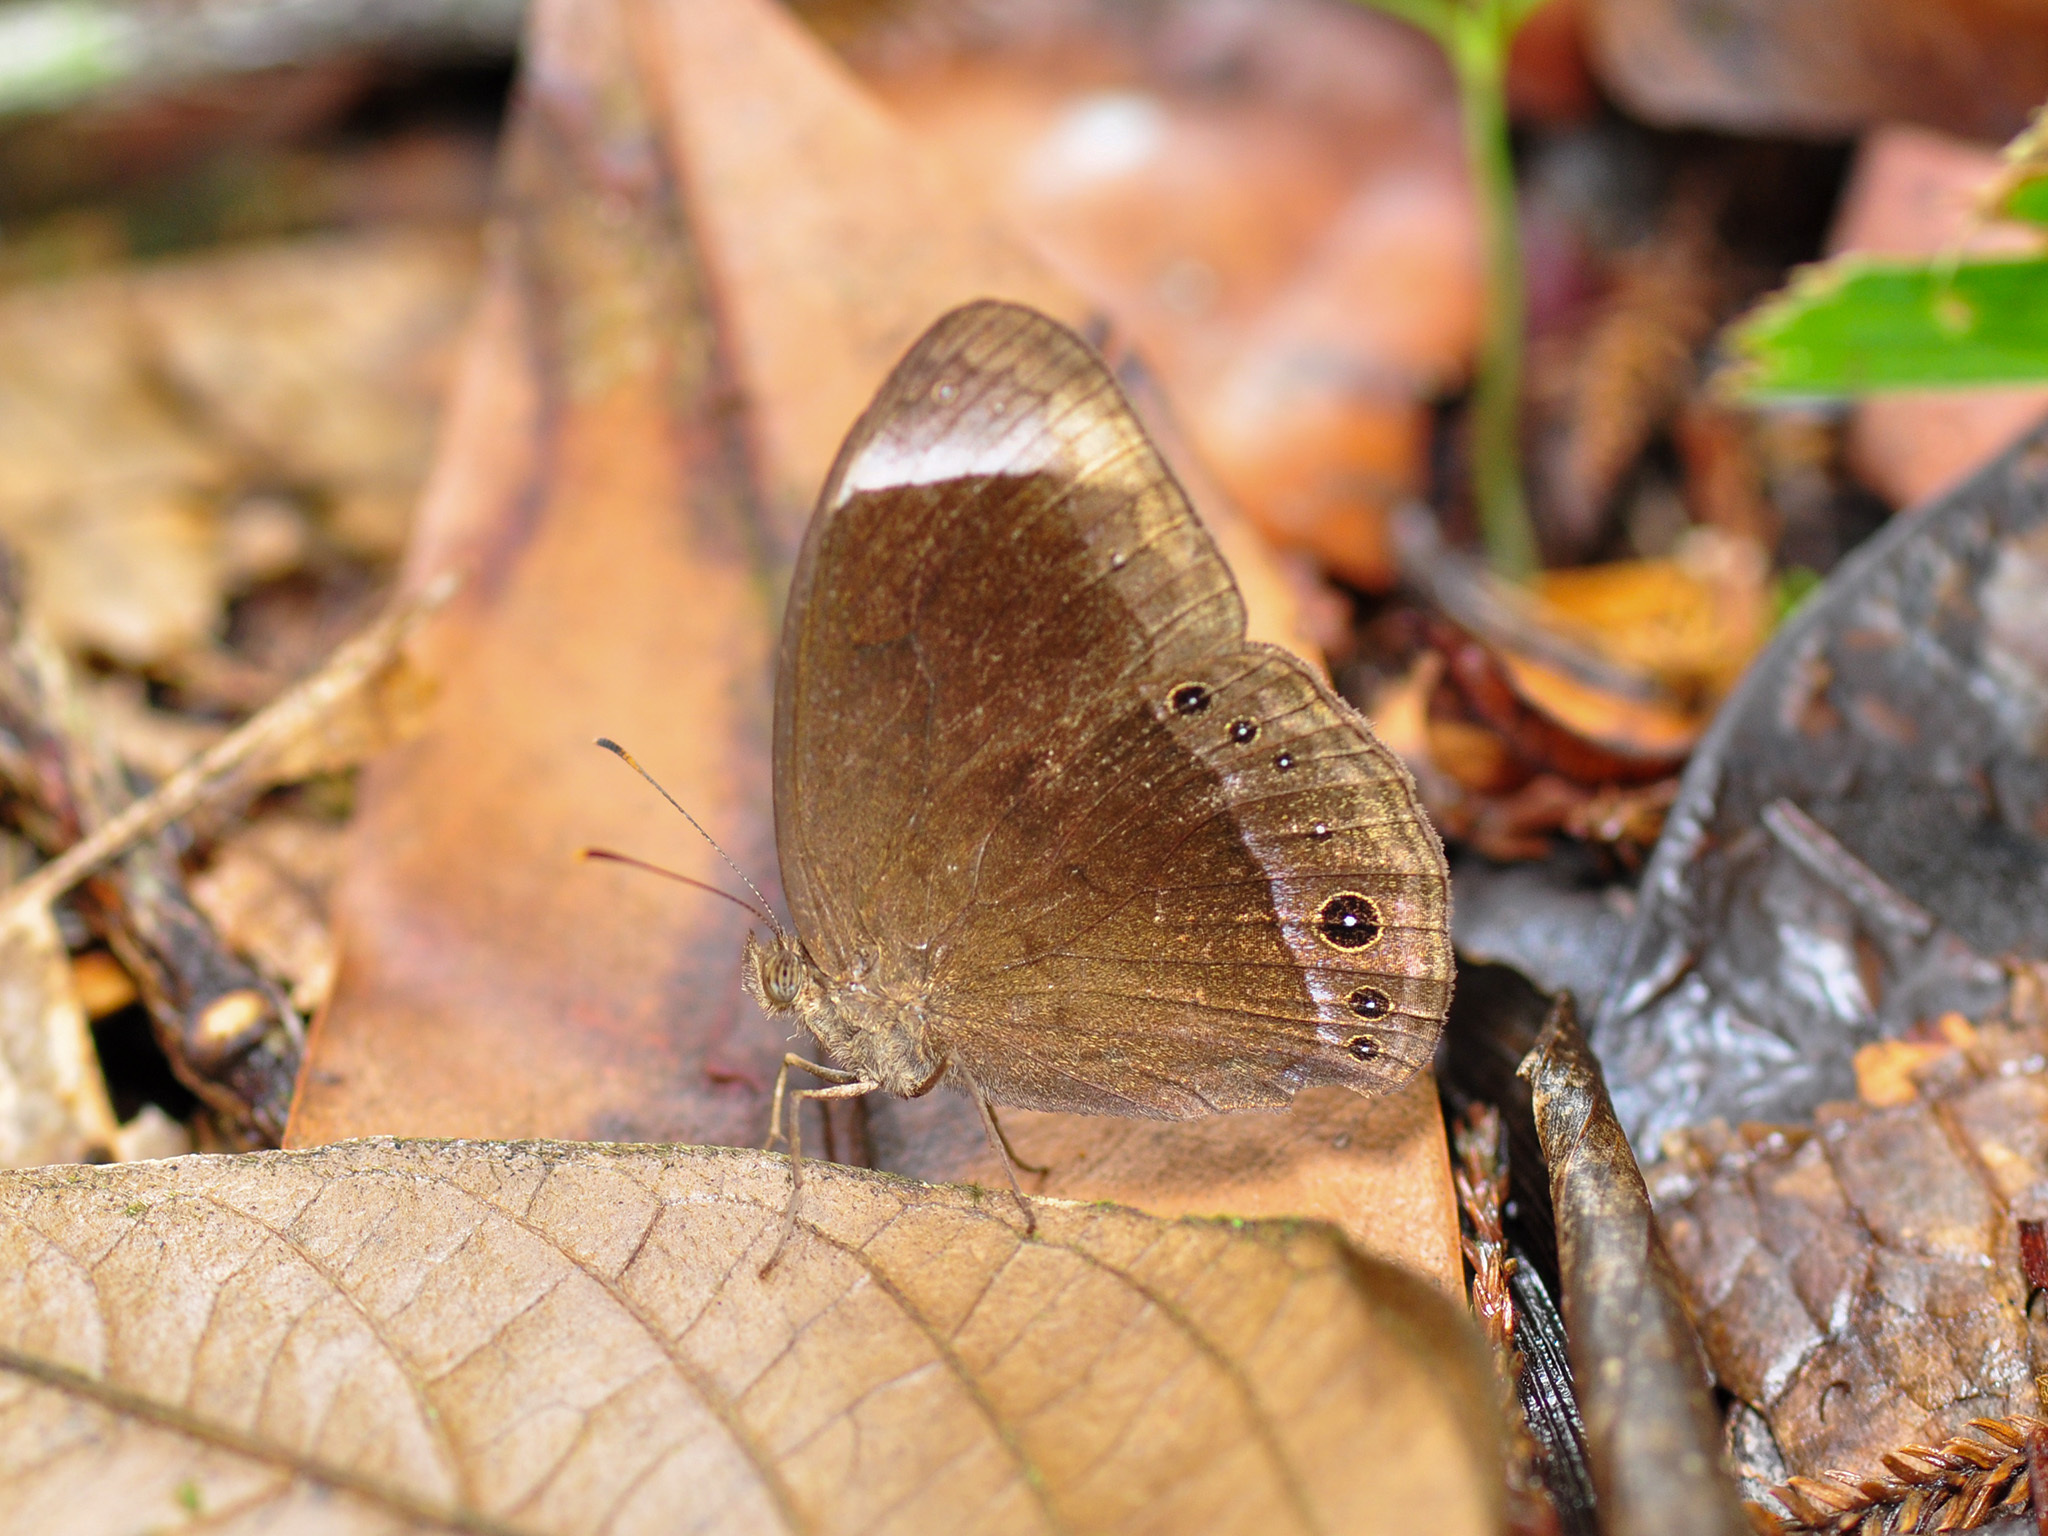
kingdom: Animalia
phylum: Arthropoda
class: Insecta
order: Lepidoptera
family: Nymphalidae
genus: Mycalesis
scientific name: Mycalesis anaxias
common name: White-bar bushbrown
